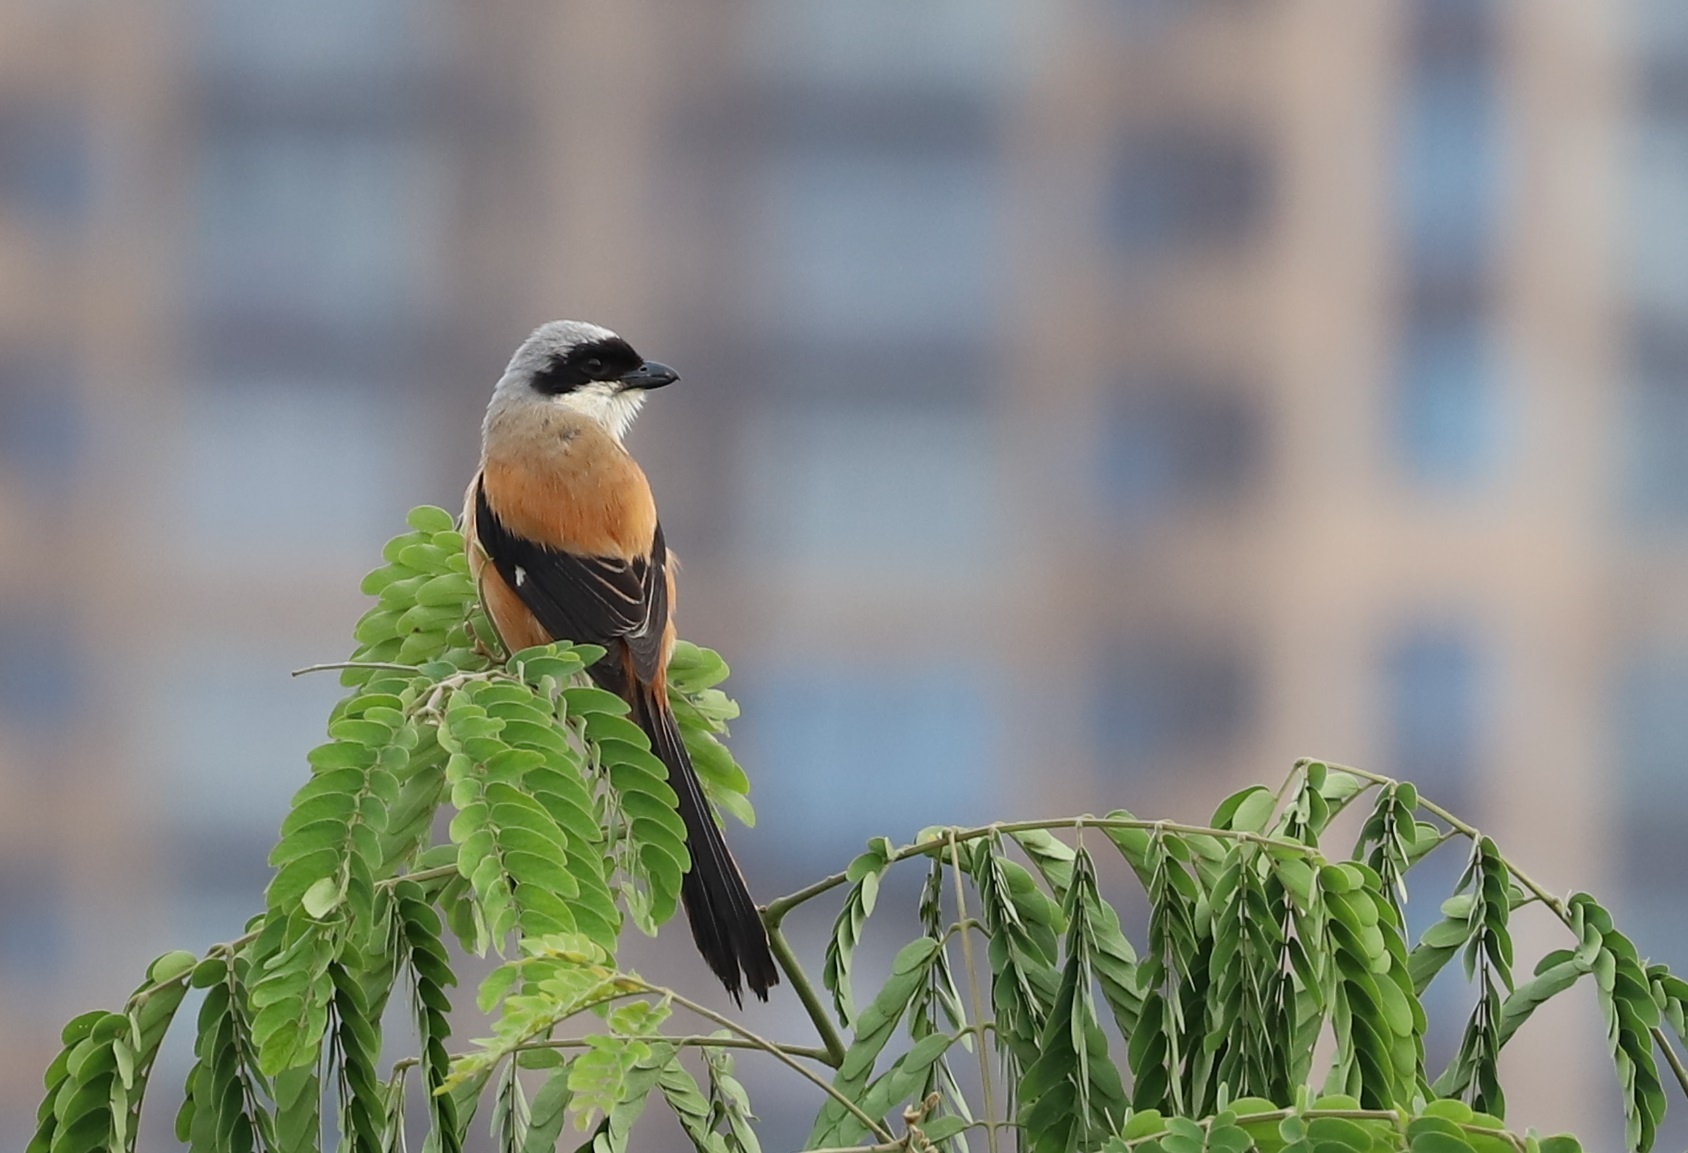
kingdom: Animalia
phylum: Chordata
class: Aves
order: Passeriformes
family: Laniidae
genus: Lanius
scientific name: Lanius schach
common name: Long-tailed shrike
